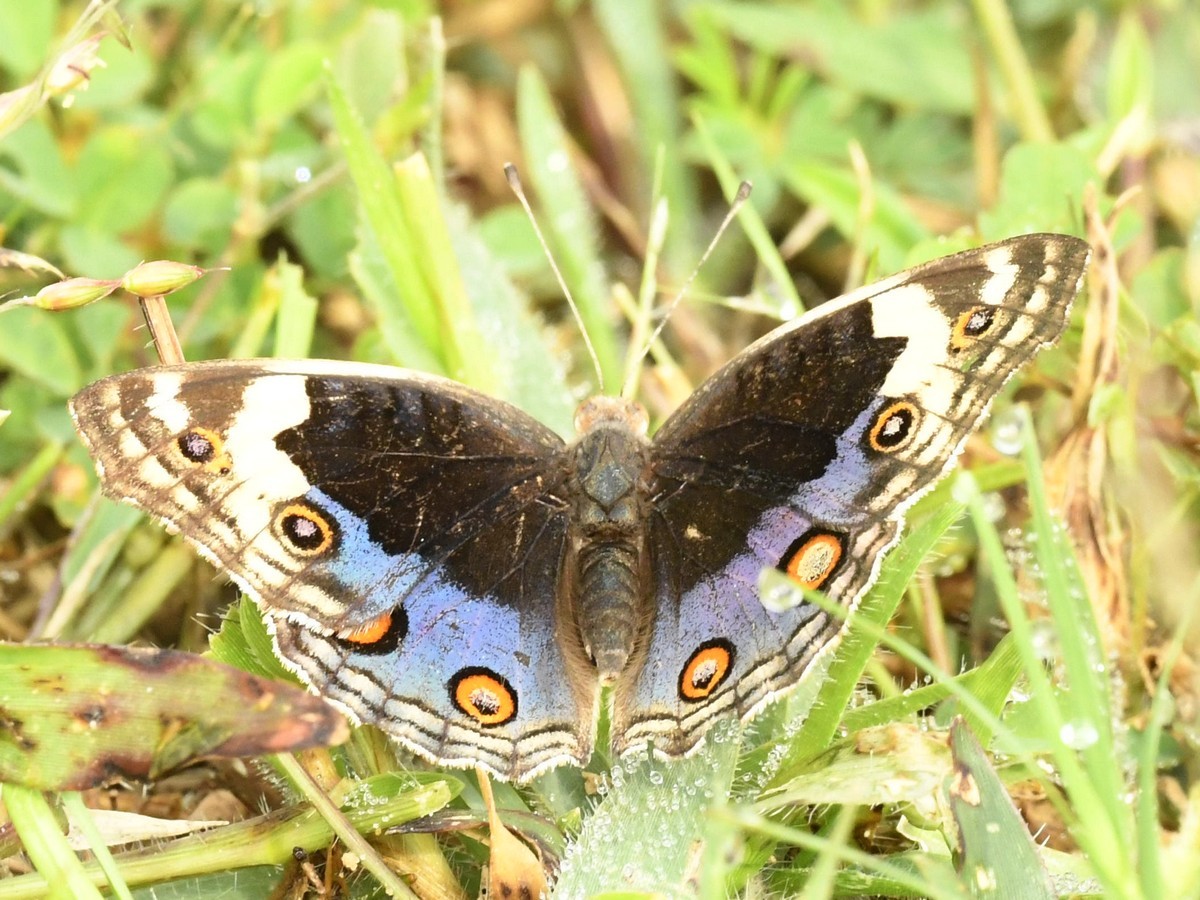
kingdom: Animalia
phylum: Arthropoda
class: Insecta
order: Lepidoptera
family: Nymphalidae
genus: Junonia
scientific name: Junonia orithya
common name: Blue pansy
